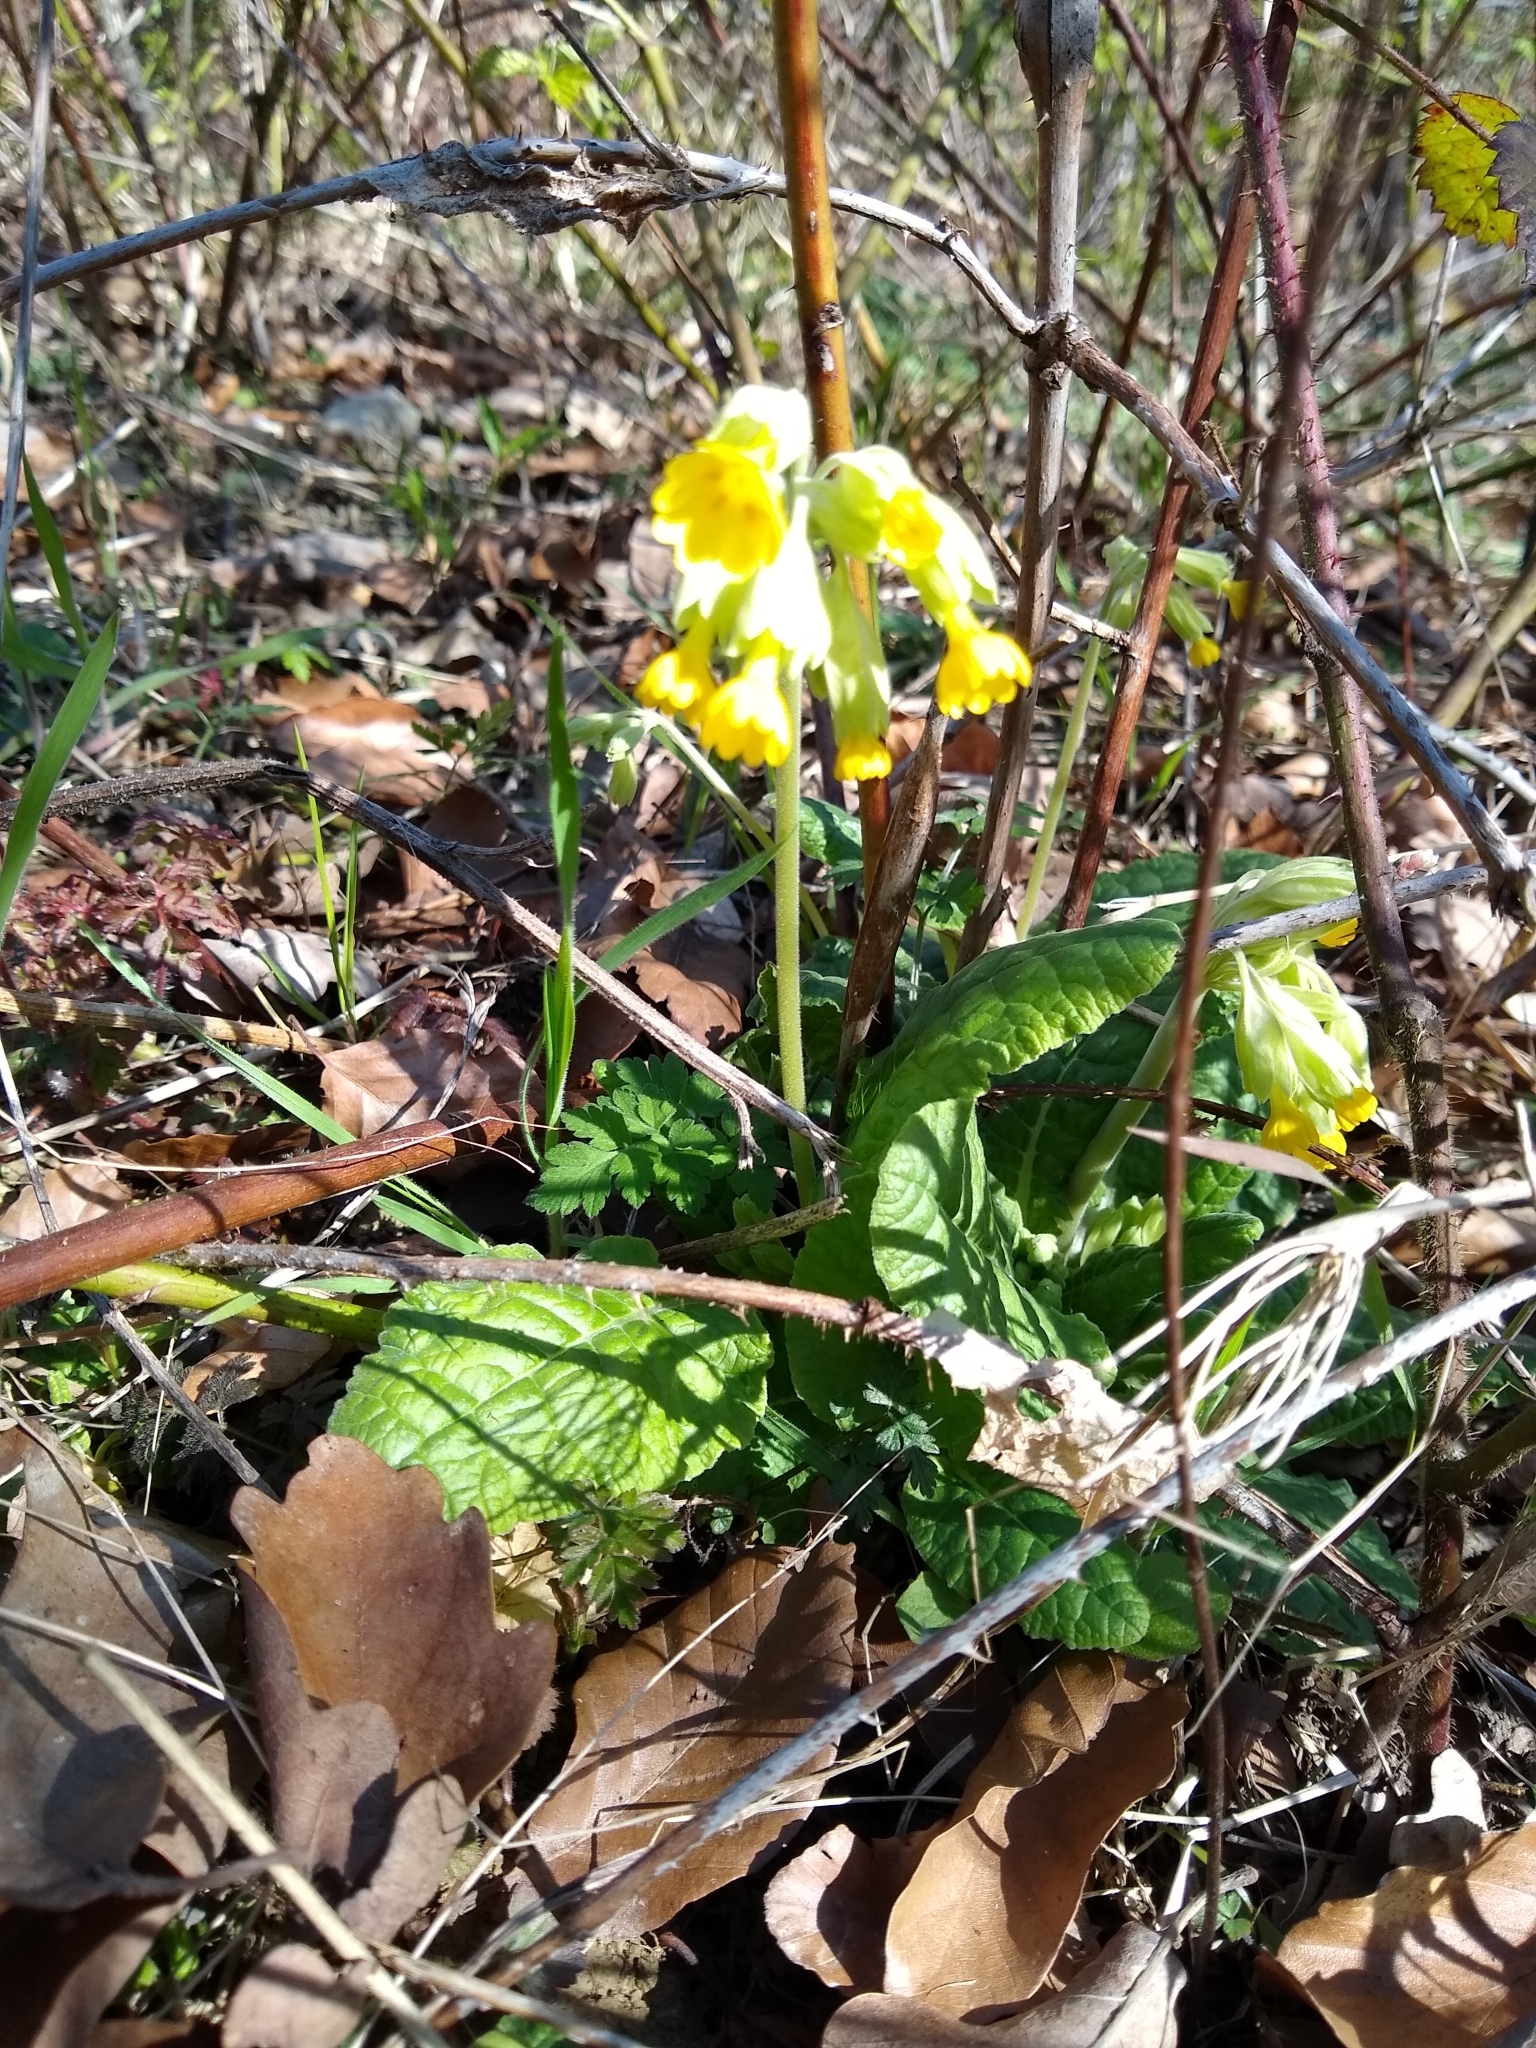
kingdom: Plantae
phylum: Tracheophyta
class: Magnoliopsida
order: Ericales
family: Primulaceae
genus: Primula
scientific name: Primula veris
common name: Cowslip
